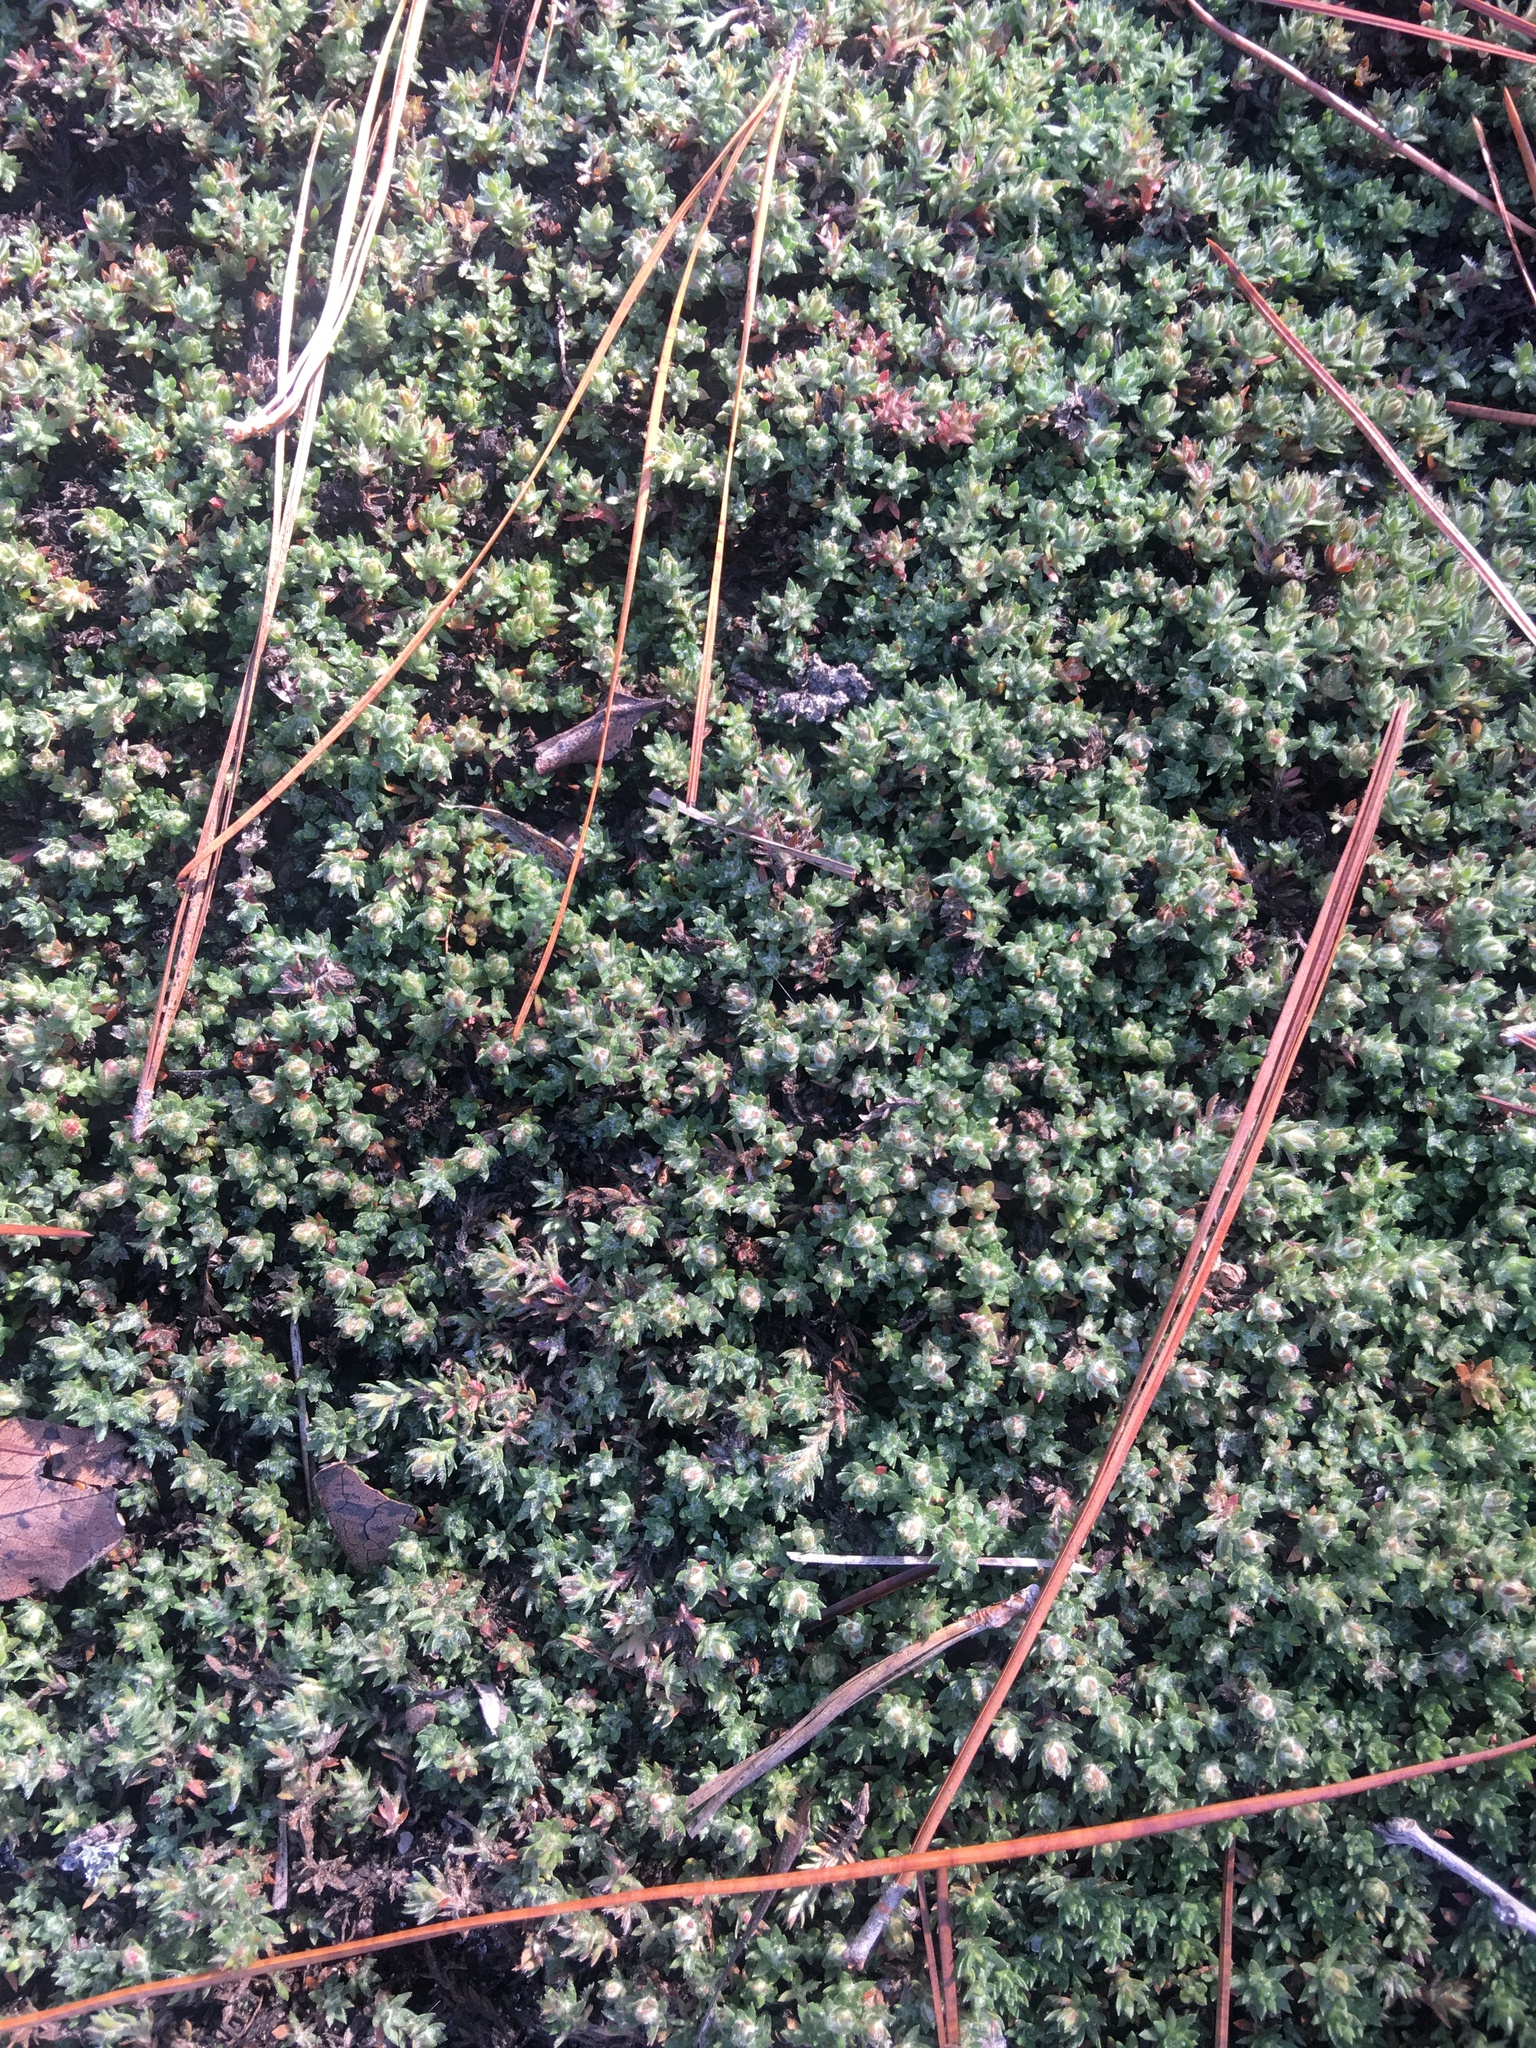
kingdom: Plantae
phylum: Tracheophyta
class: Magnoliopsida
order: Ericales
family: Diapensiaceae
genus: Pyxidanthera
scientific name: Pyxidanthera brevifolia
